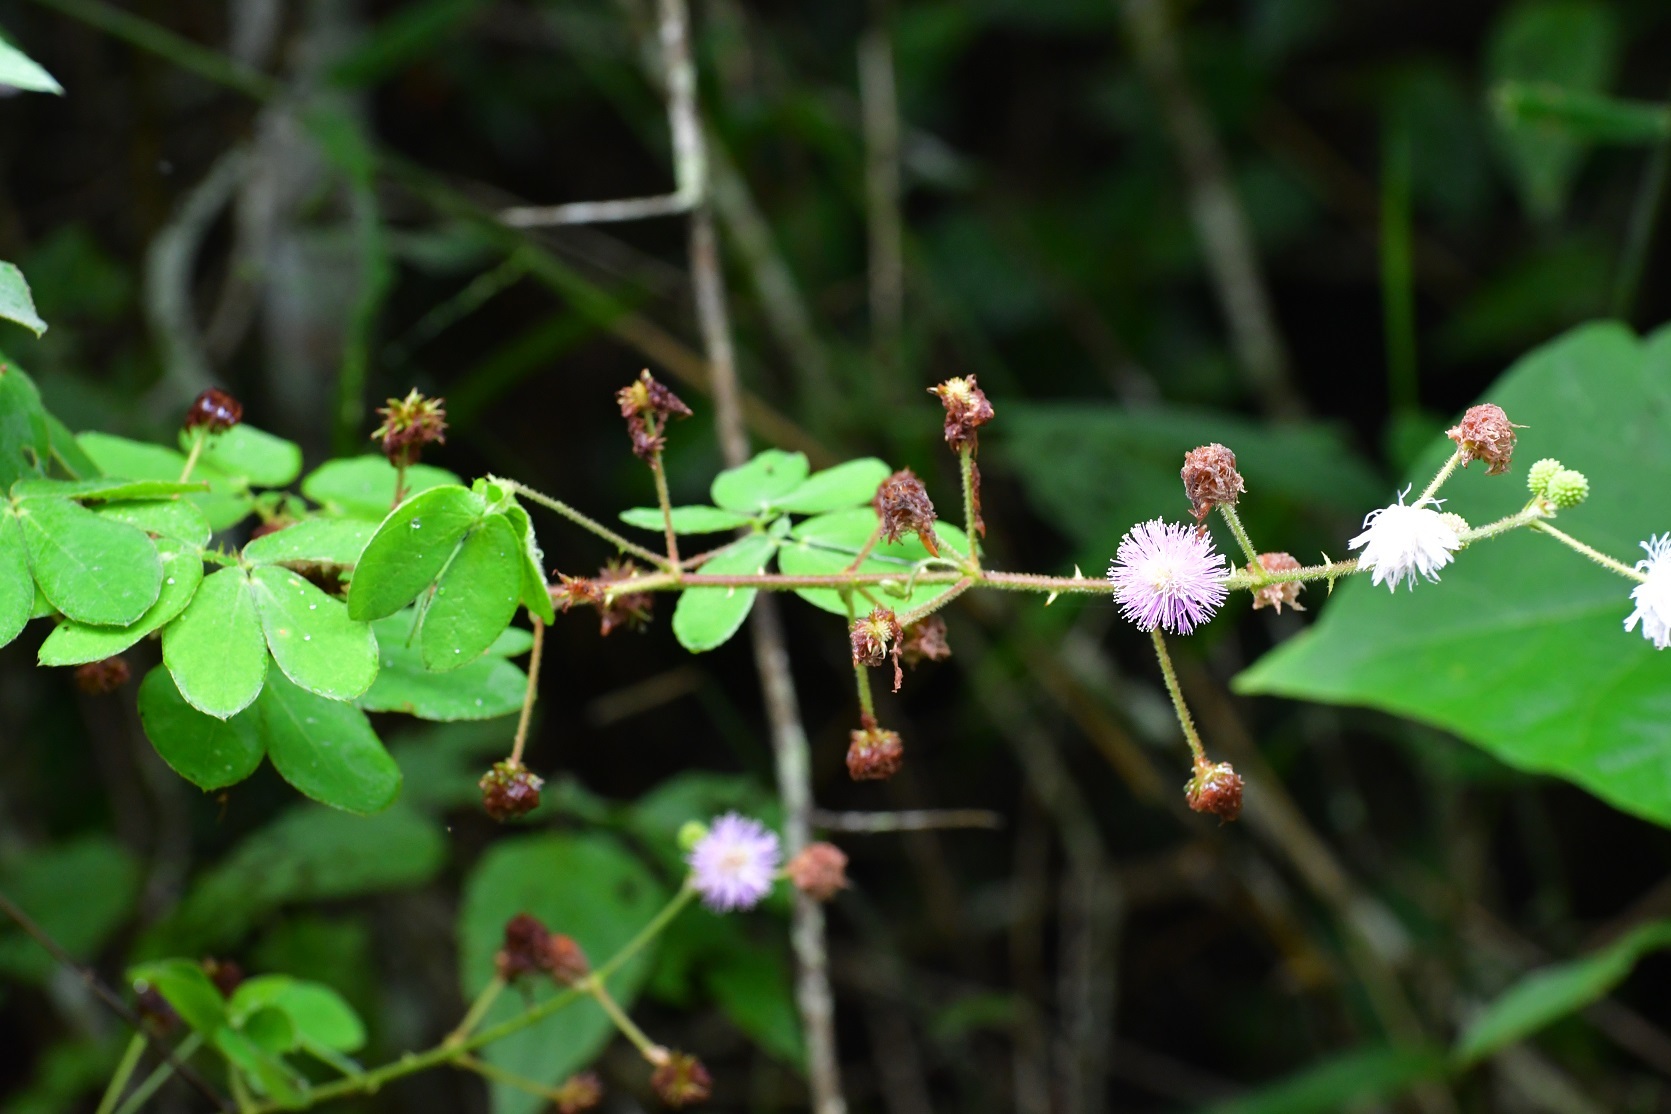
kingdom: Plantae
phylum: Tracheophyta
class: Magnoliopsida
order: Fabales
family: Fabaceae
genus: Mimosa
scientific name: Mimosa albida
